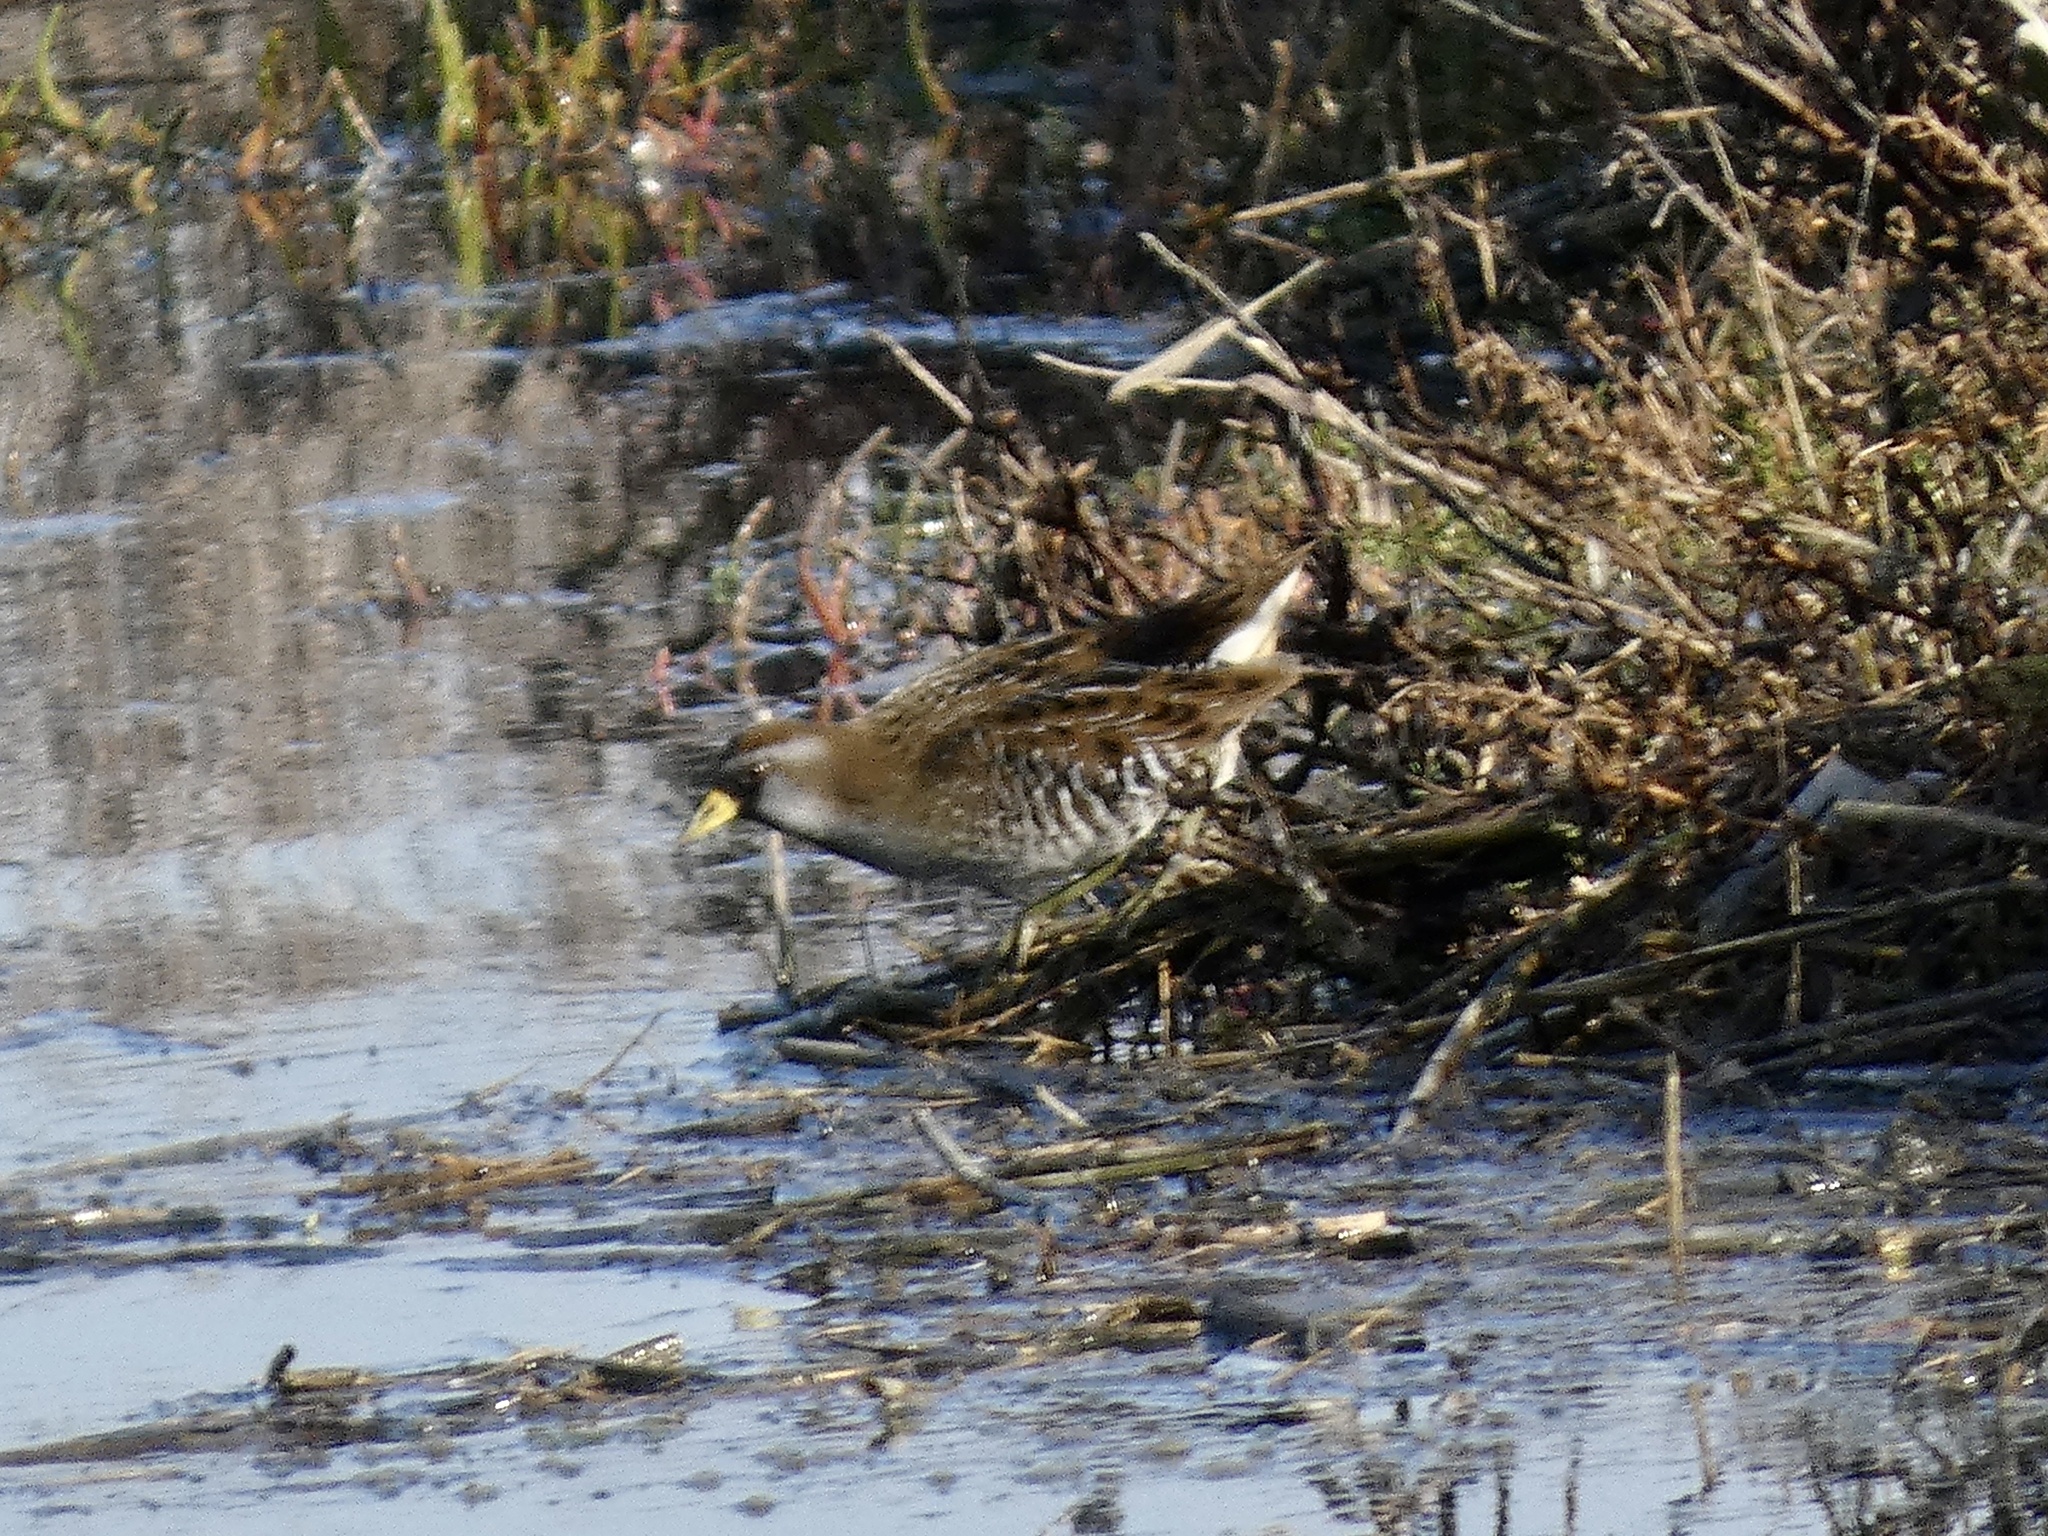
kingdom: Animalia
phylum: Chordata
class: Aves
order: Gruiformes
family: Rallidae
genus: Porzana
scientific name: Porzana carolina
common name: Sora
